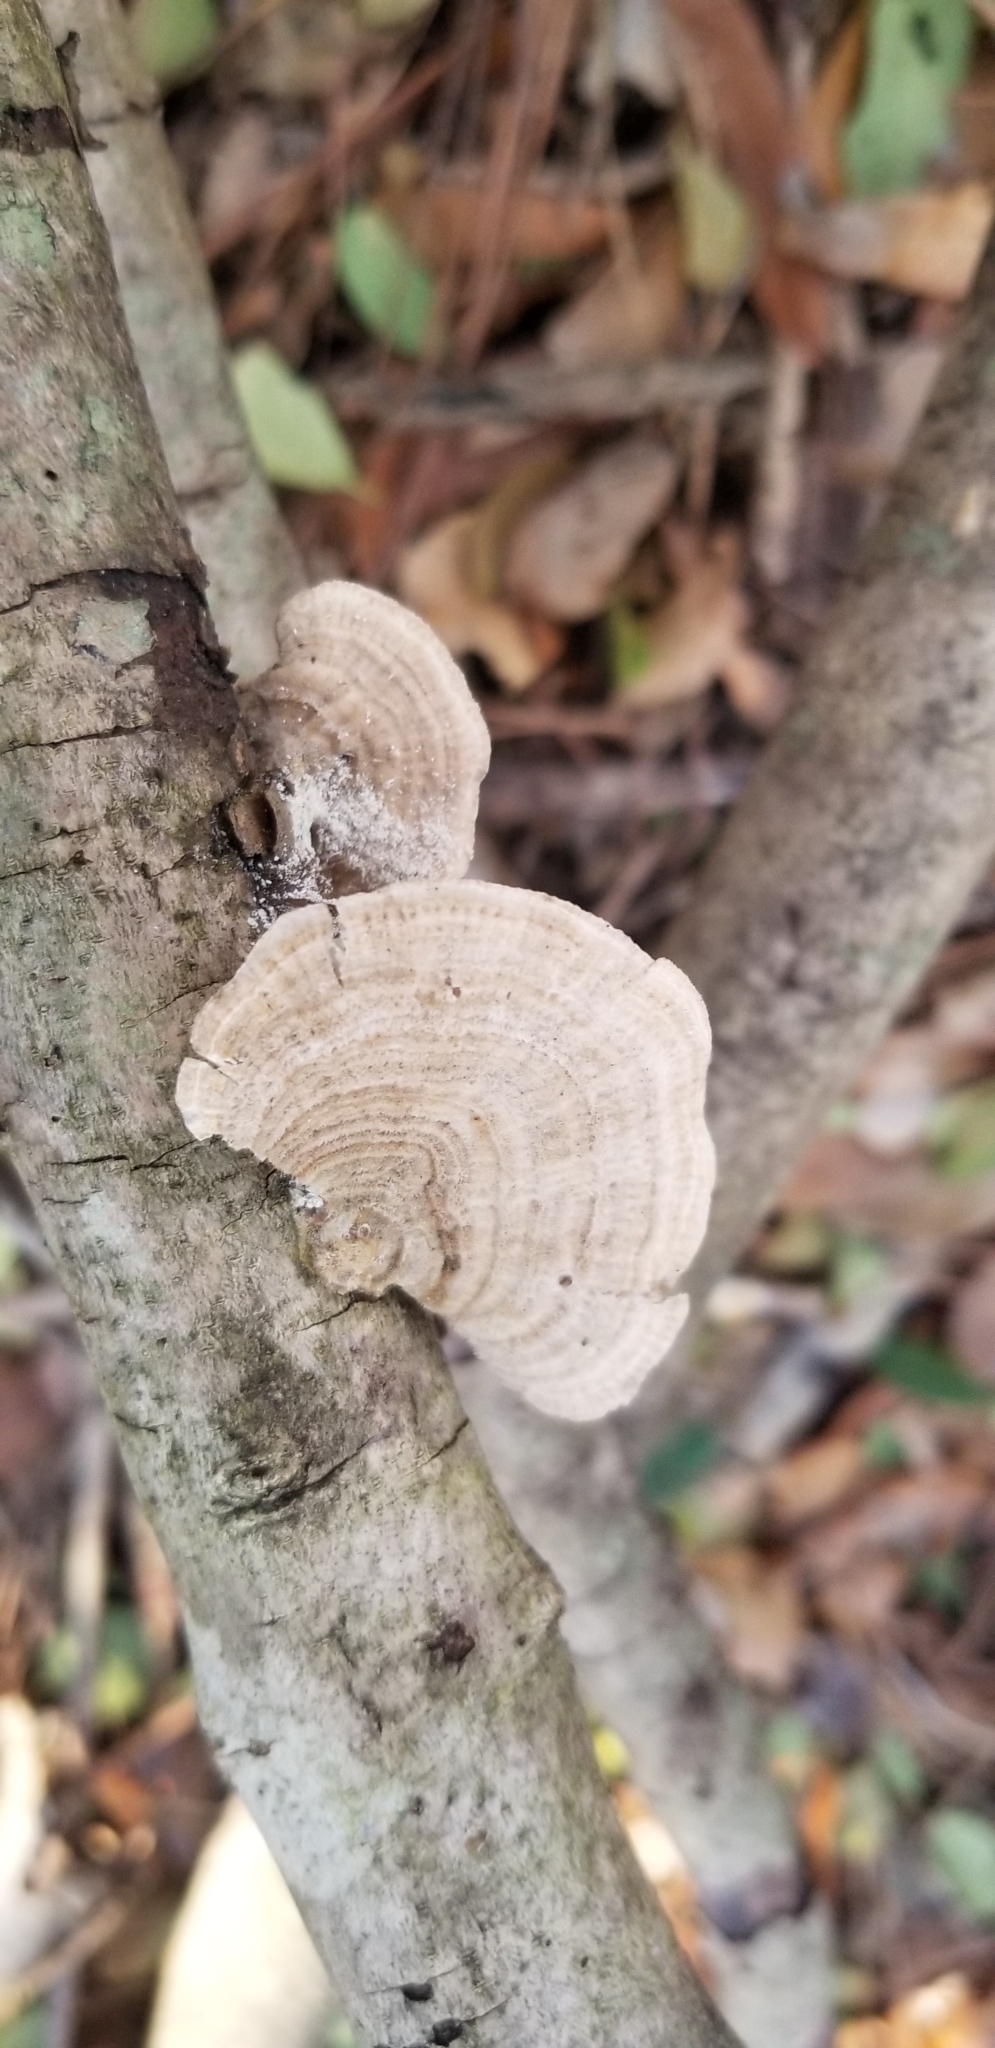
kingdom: Fungi
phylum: Basidiomycota
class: Agaricomycetes
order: Polyporales
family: Polyporaceae
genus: Lenzites
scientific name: Lenzites betulinus
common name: Birch mazegill
